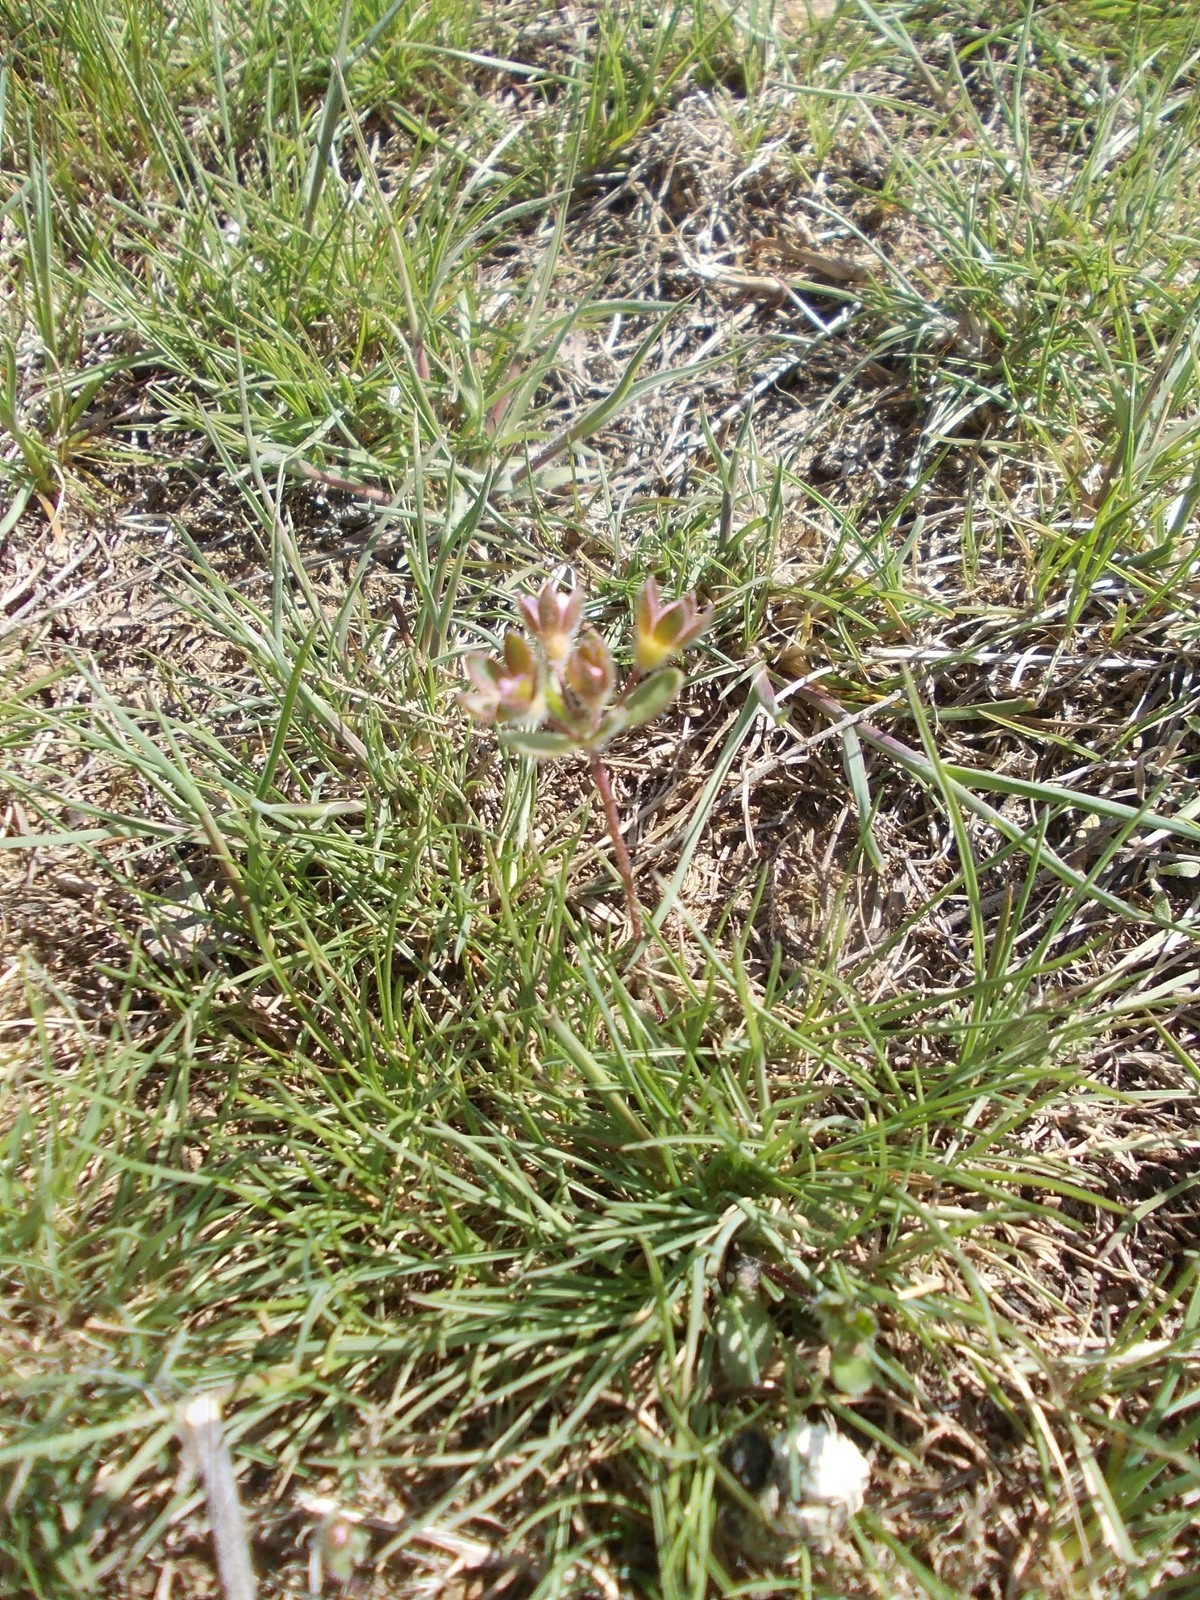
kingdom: Plantae
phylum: Tracheophyta
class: Magnoliopsida
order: Ericales
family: Primulaceae
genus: Androsace
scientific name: Androsace maxima
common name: Annual androsace
